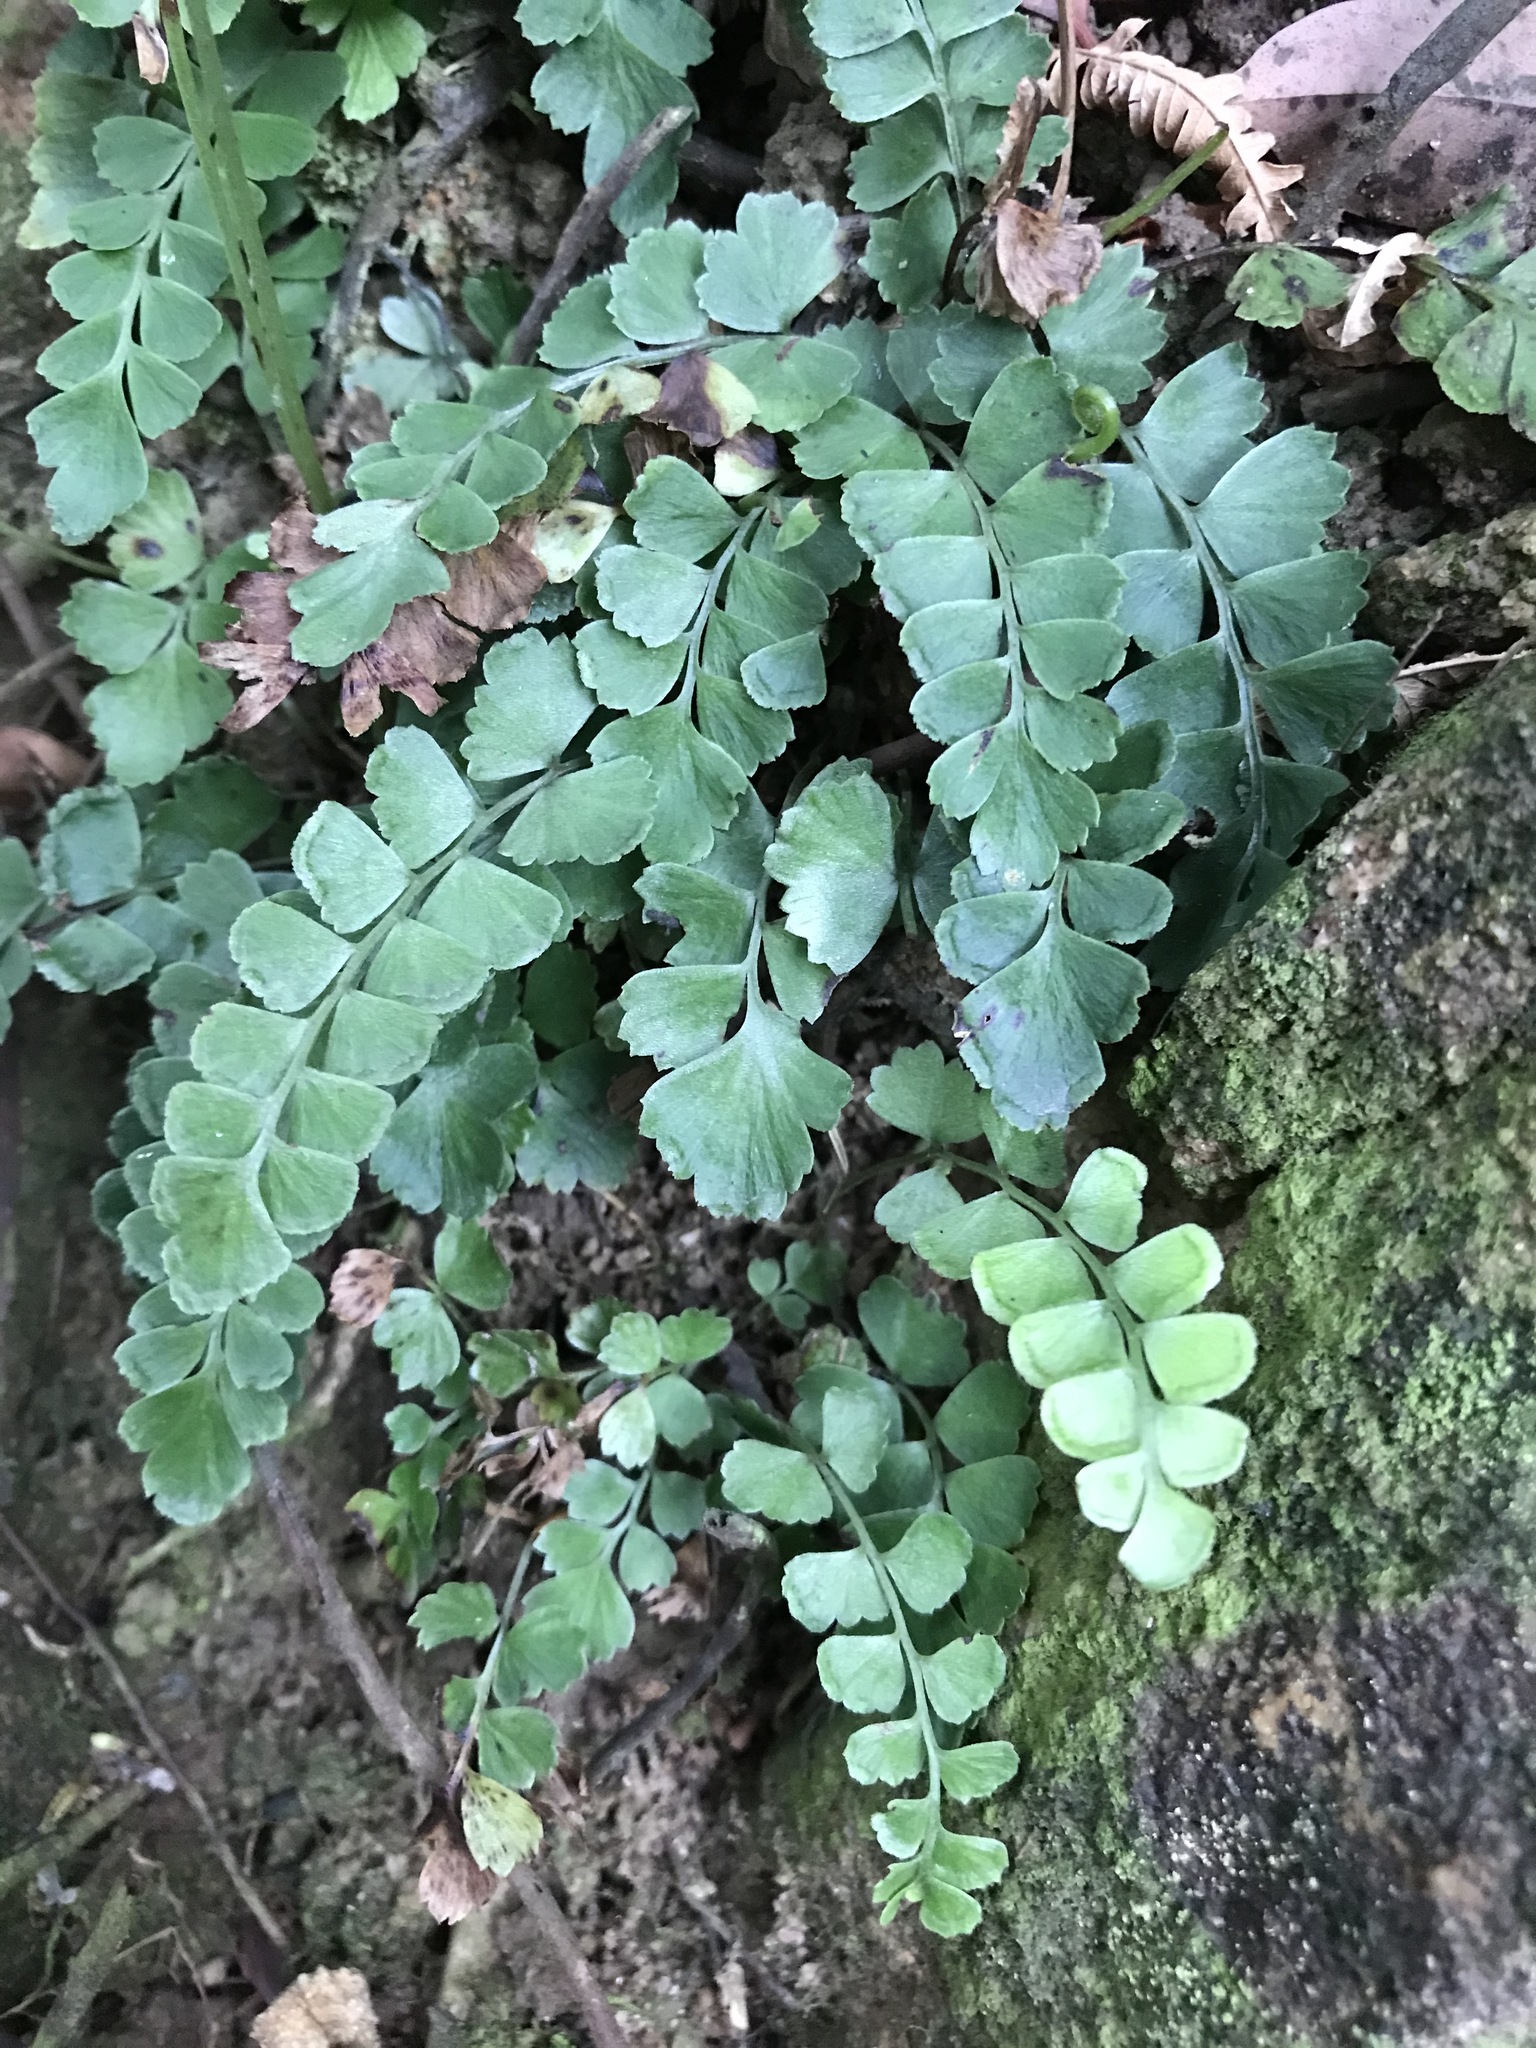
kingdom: Plantae
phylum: Tracheophyta
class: Polypodiopsida
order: Polypodiales
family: Lindsaeaceae
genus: Lindsaea
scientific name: Lindsaea orbiculata
